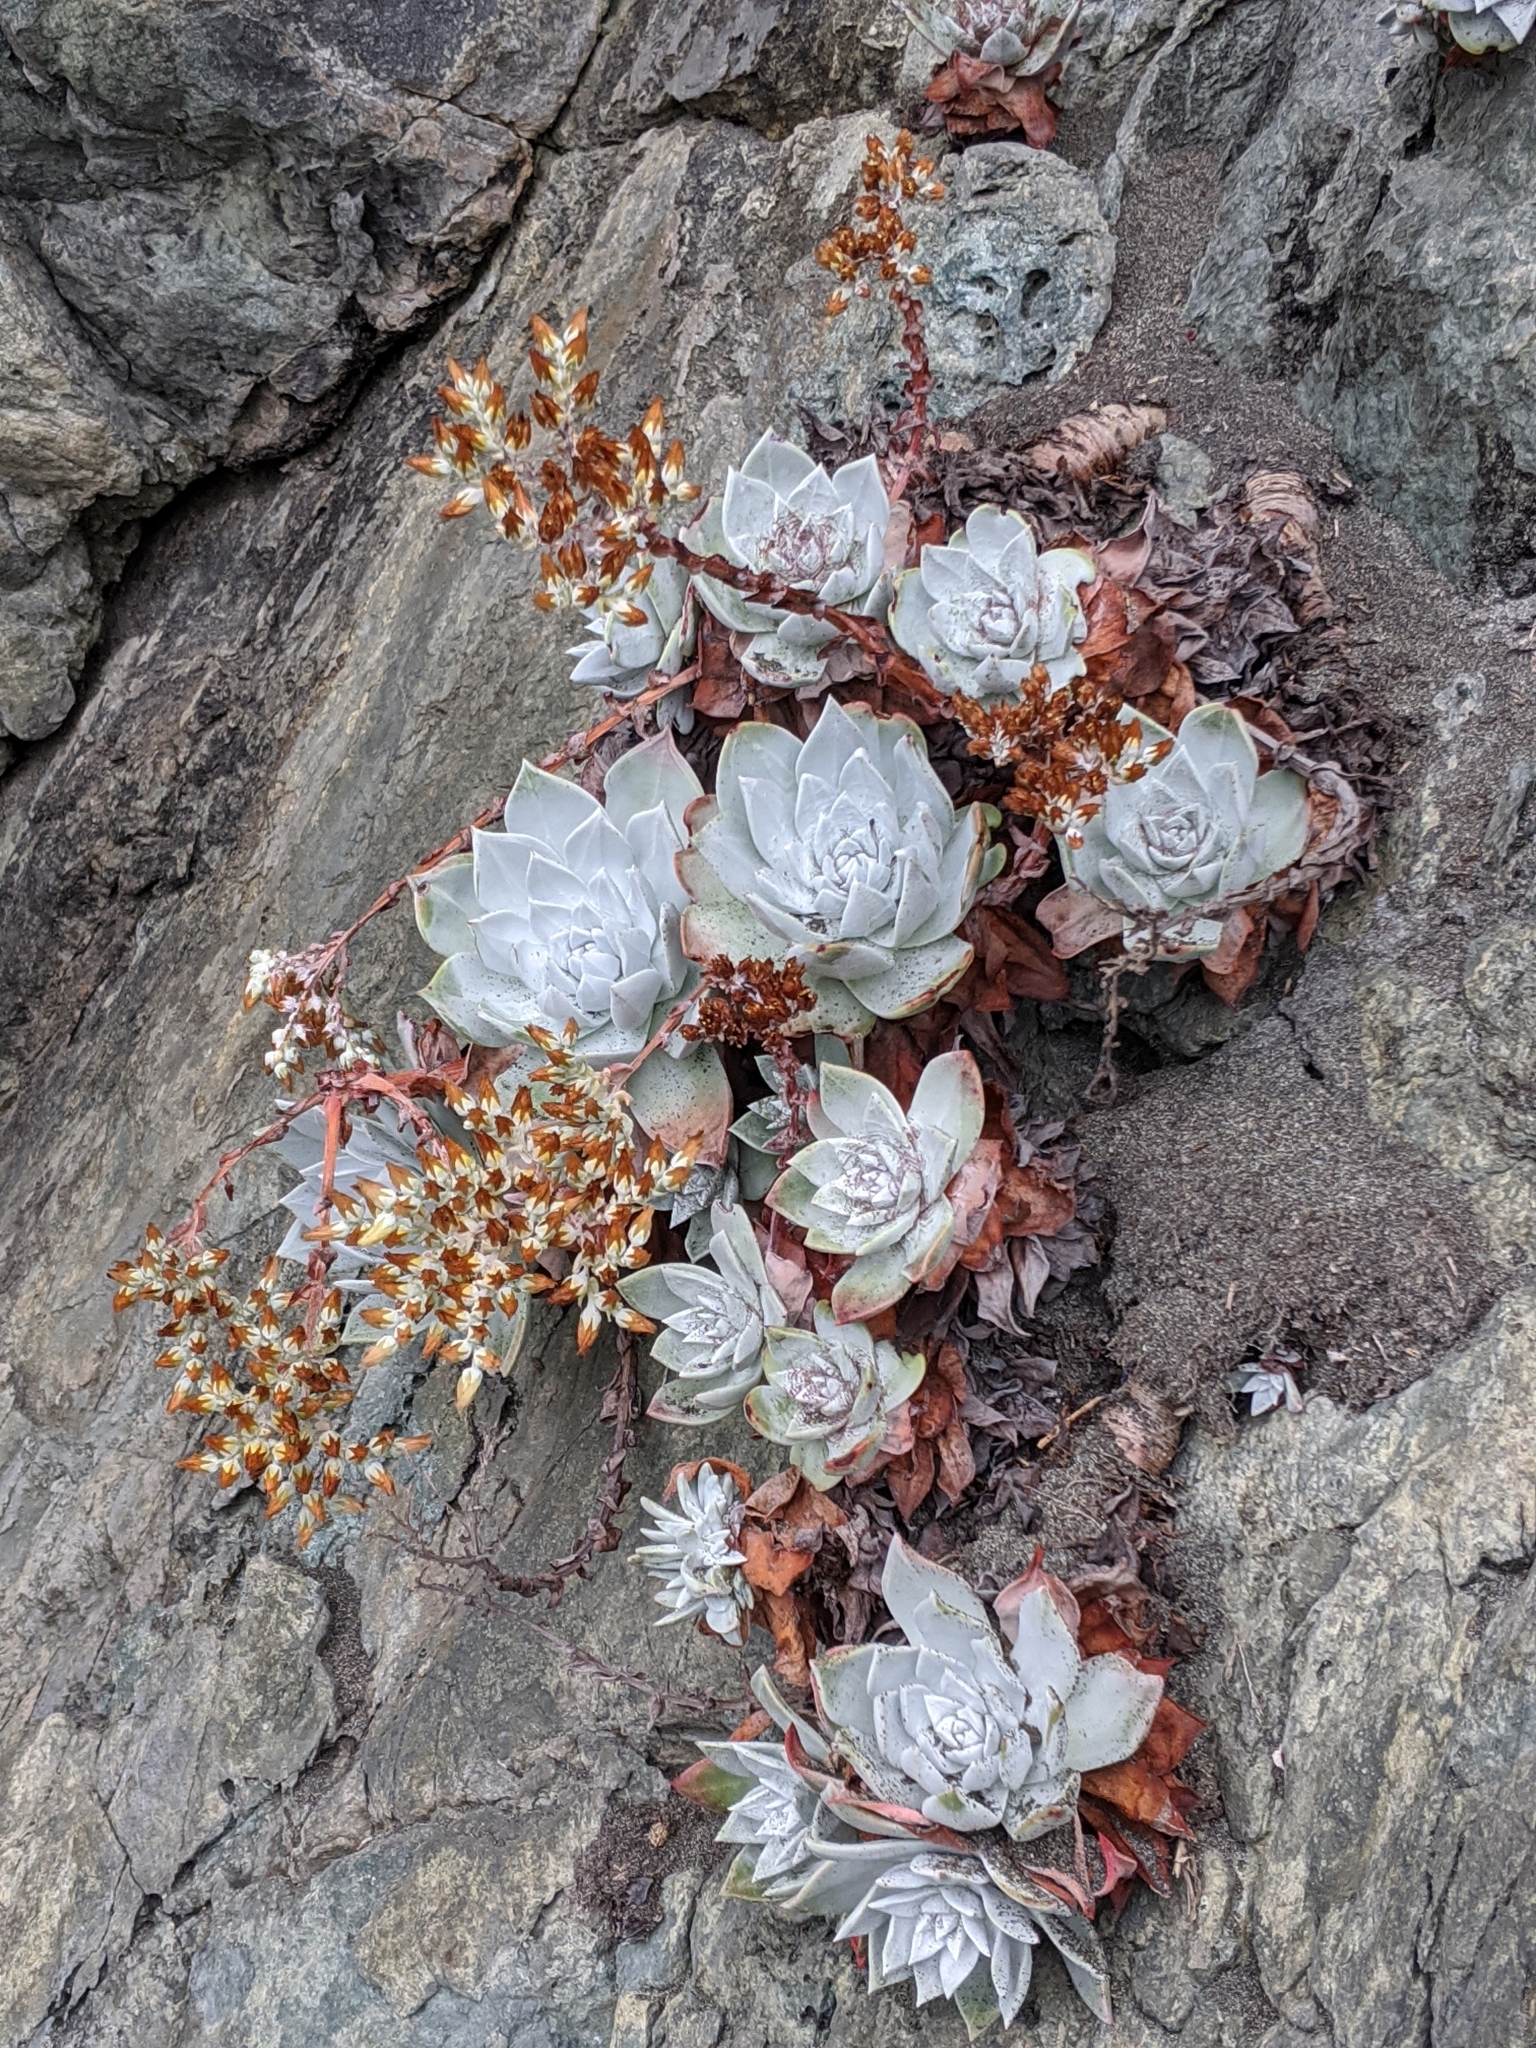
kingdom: Plantae
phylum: Tracheophyta
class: Magnoliopsida
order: Saxifragales
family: Crassulaceae
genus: Dudleya
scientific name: Dudleya farinosa
